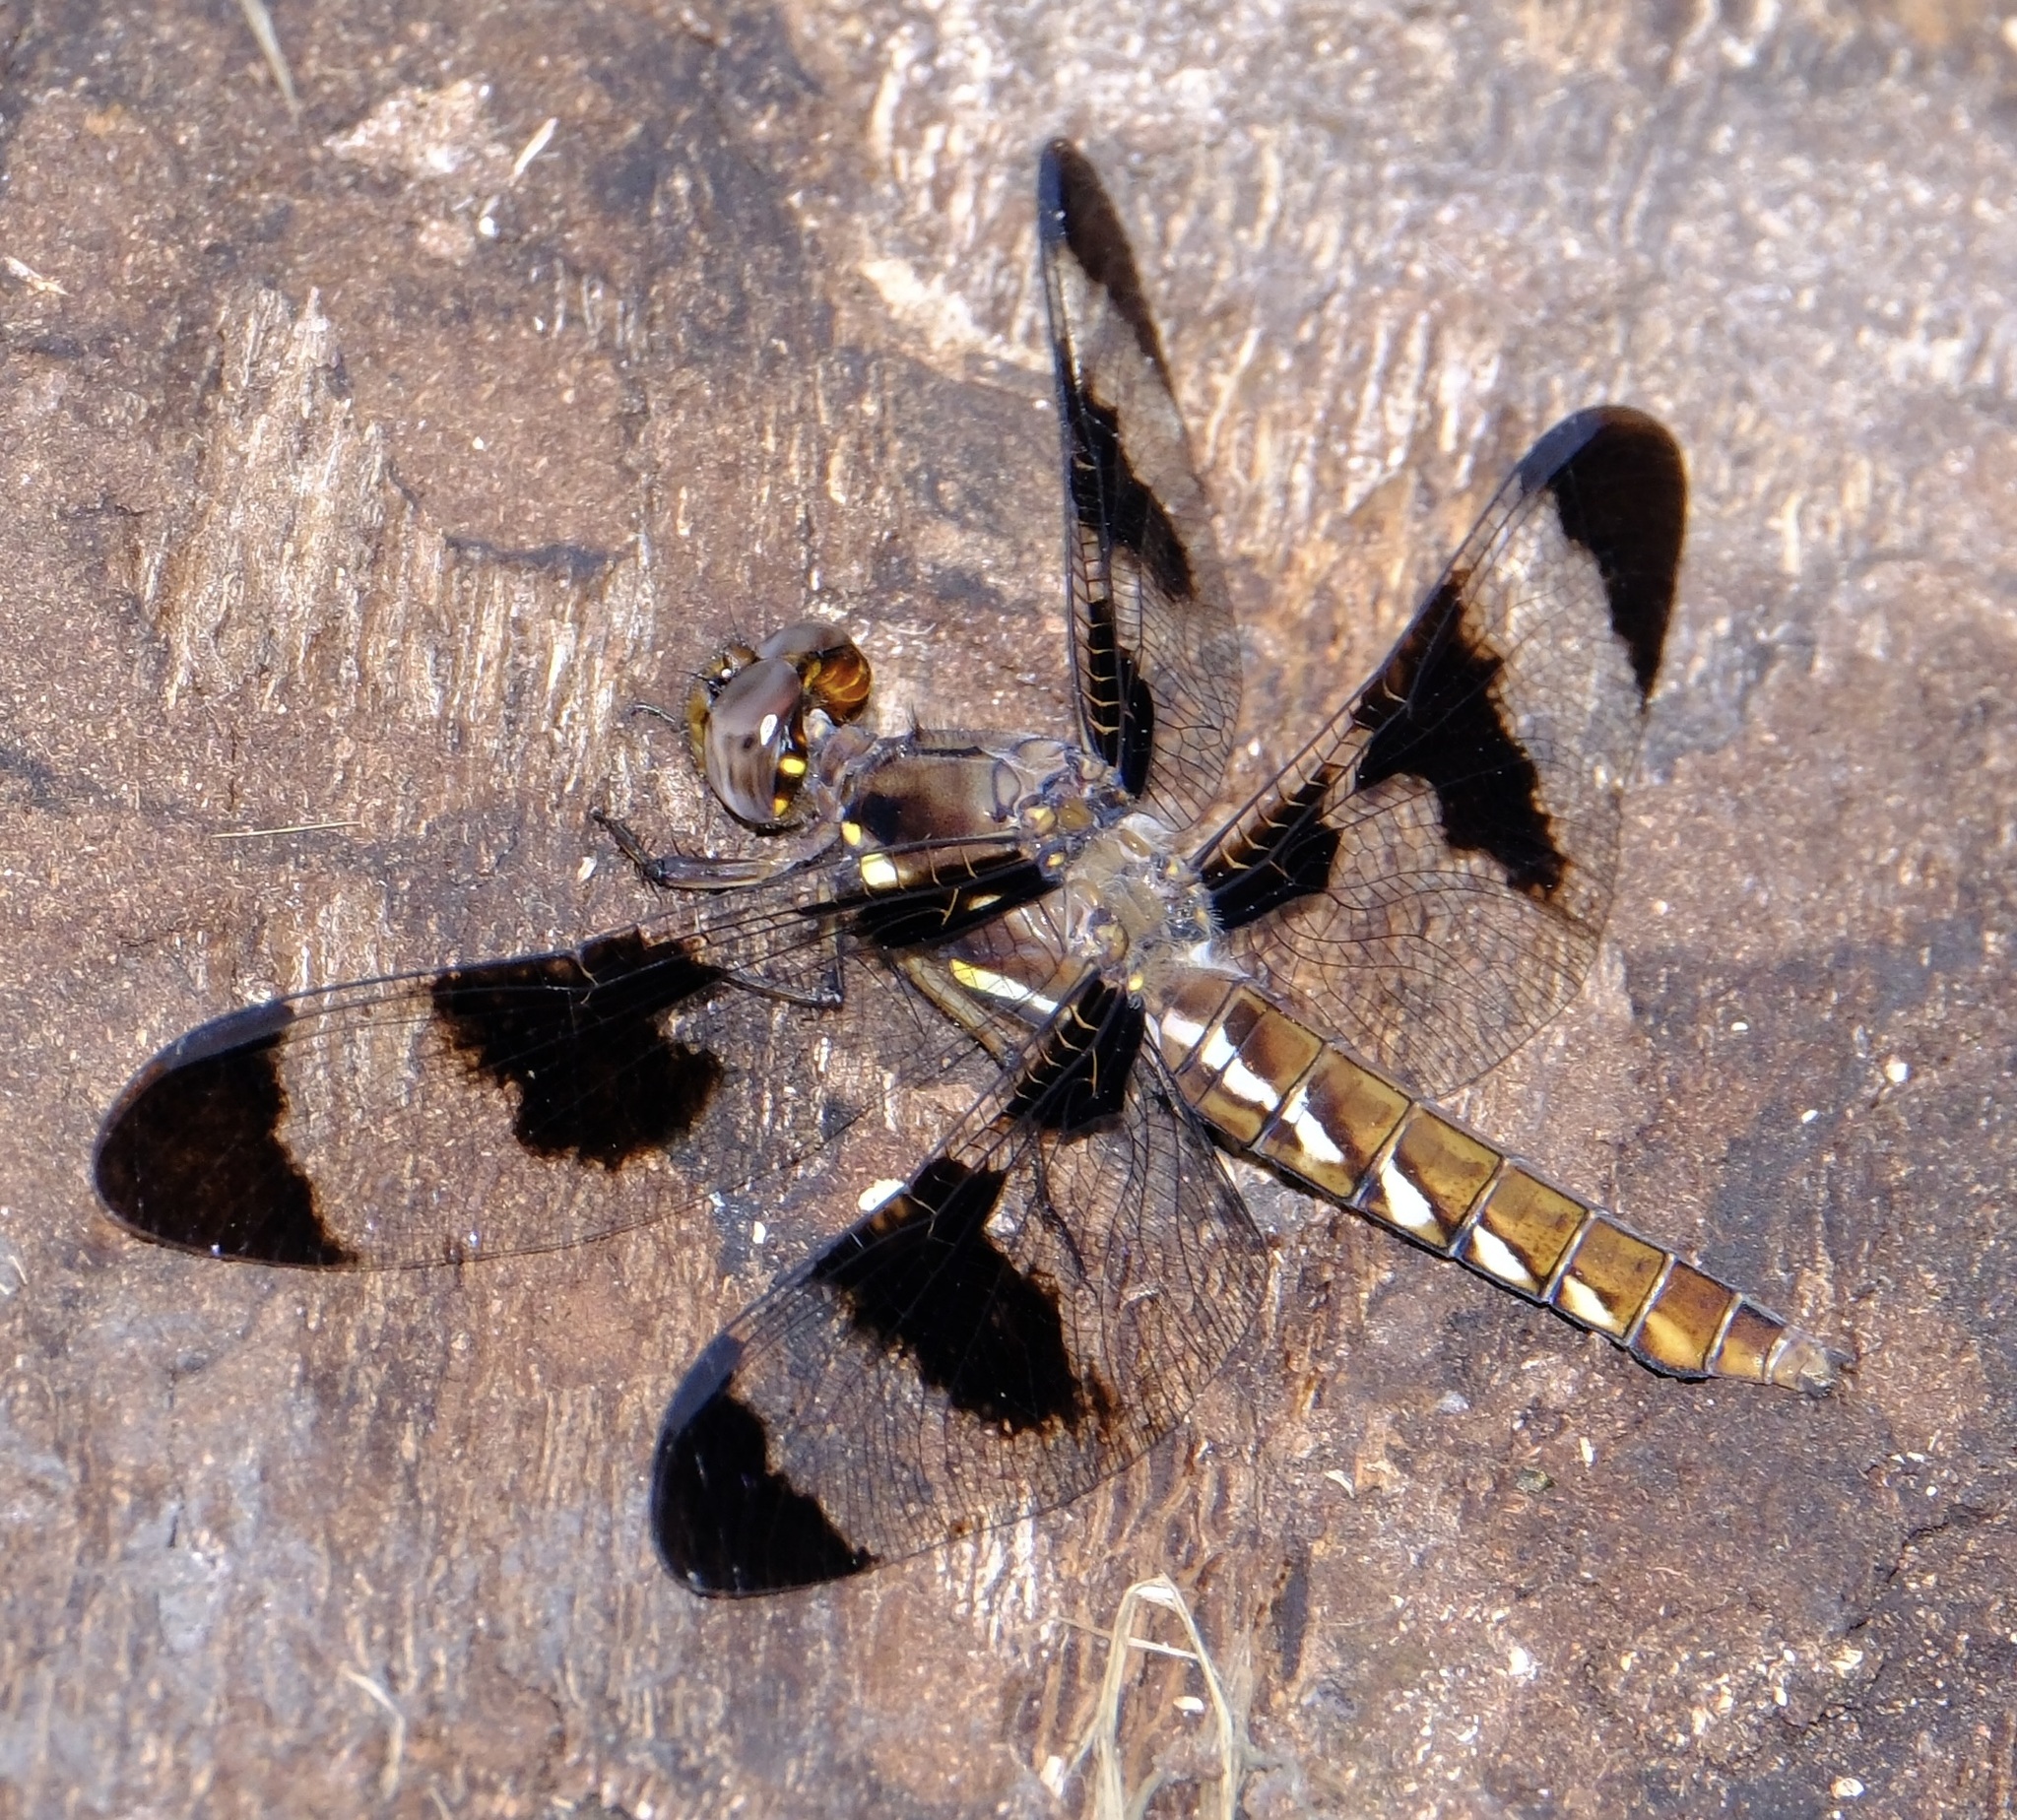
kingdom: Animalia
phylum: Arthropoda
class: Insecta
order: Odonata
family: Libellulidae
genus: Plathemis
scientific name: Plathemis lydia
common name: Common whitetail
